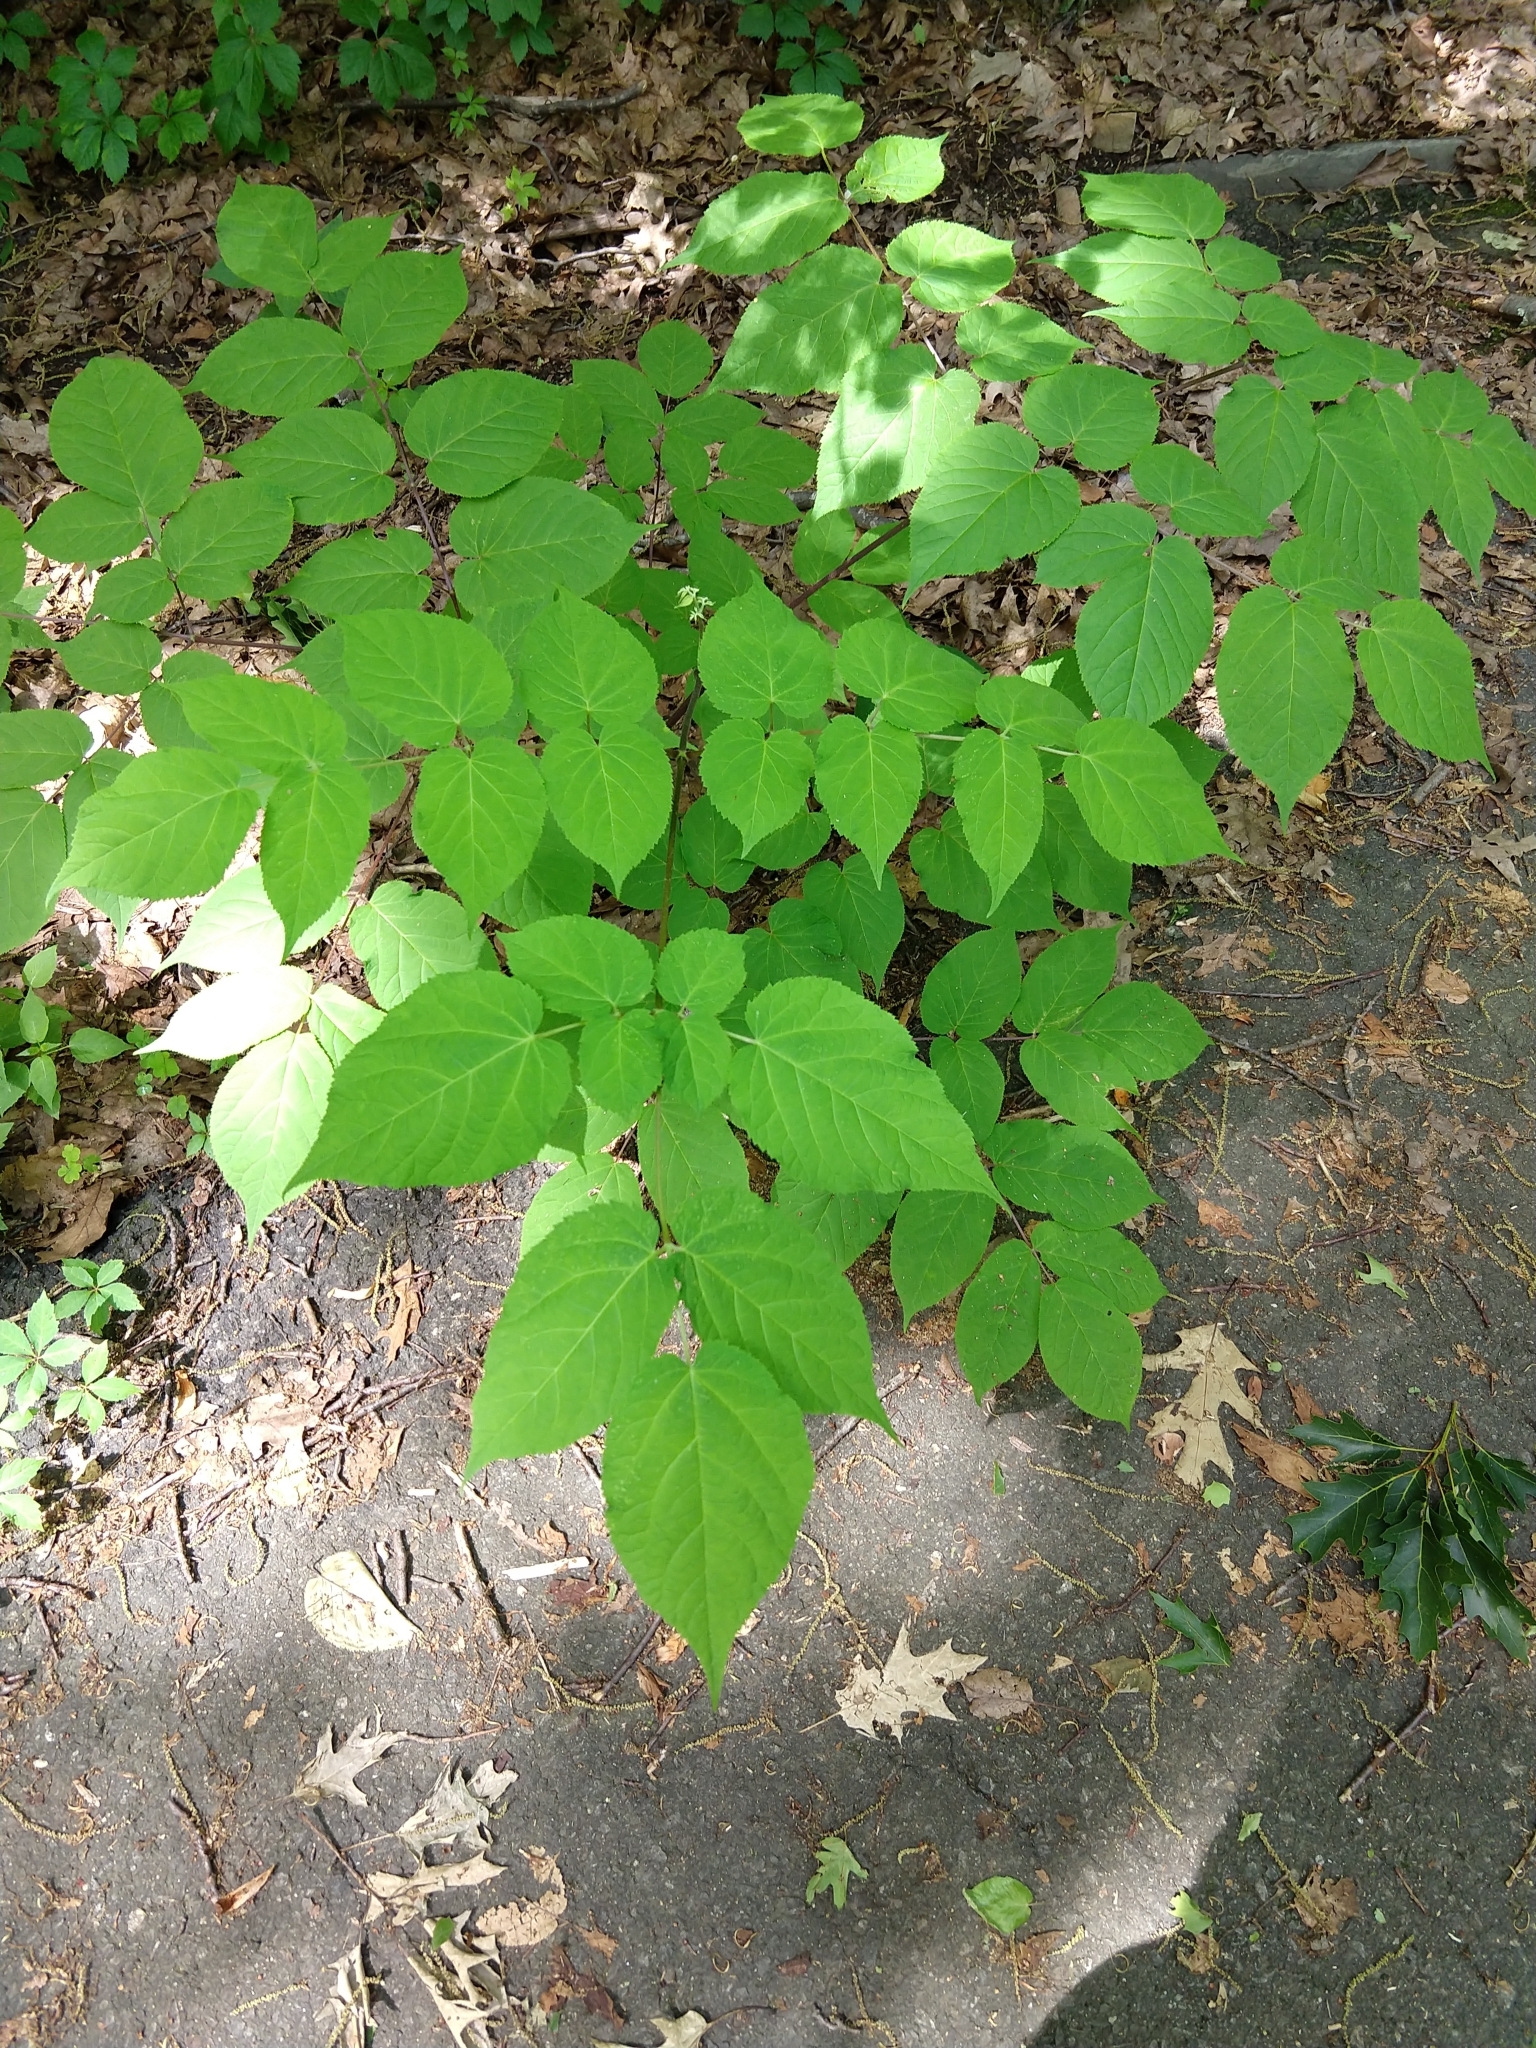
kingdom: Plantae
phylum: Tracheophyta
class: Magnoliopsida
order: Apiales
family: Araliaceae
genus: Aralia
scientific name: Aralia racemosa
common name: American-spikenard
